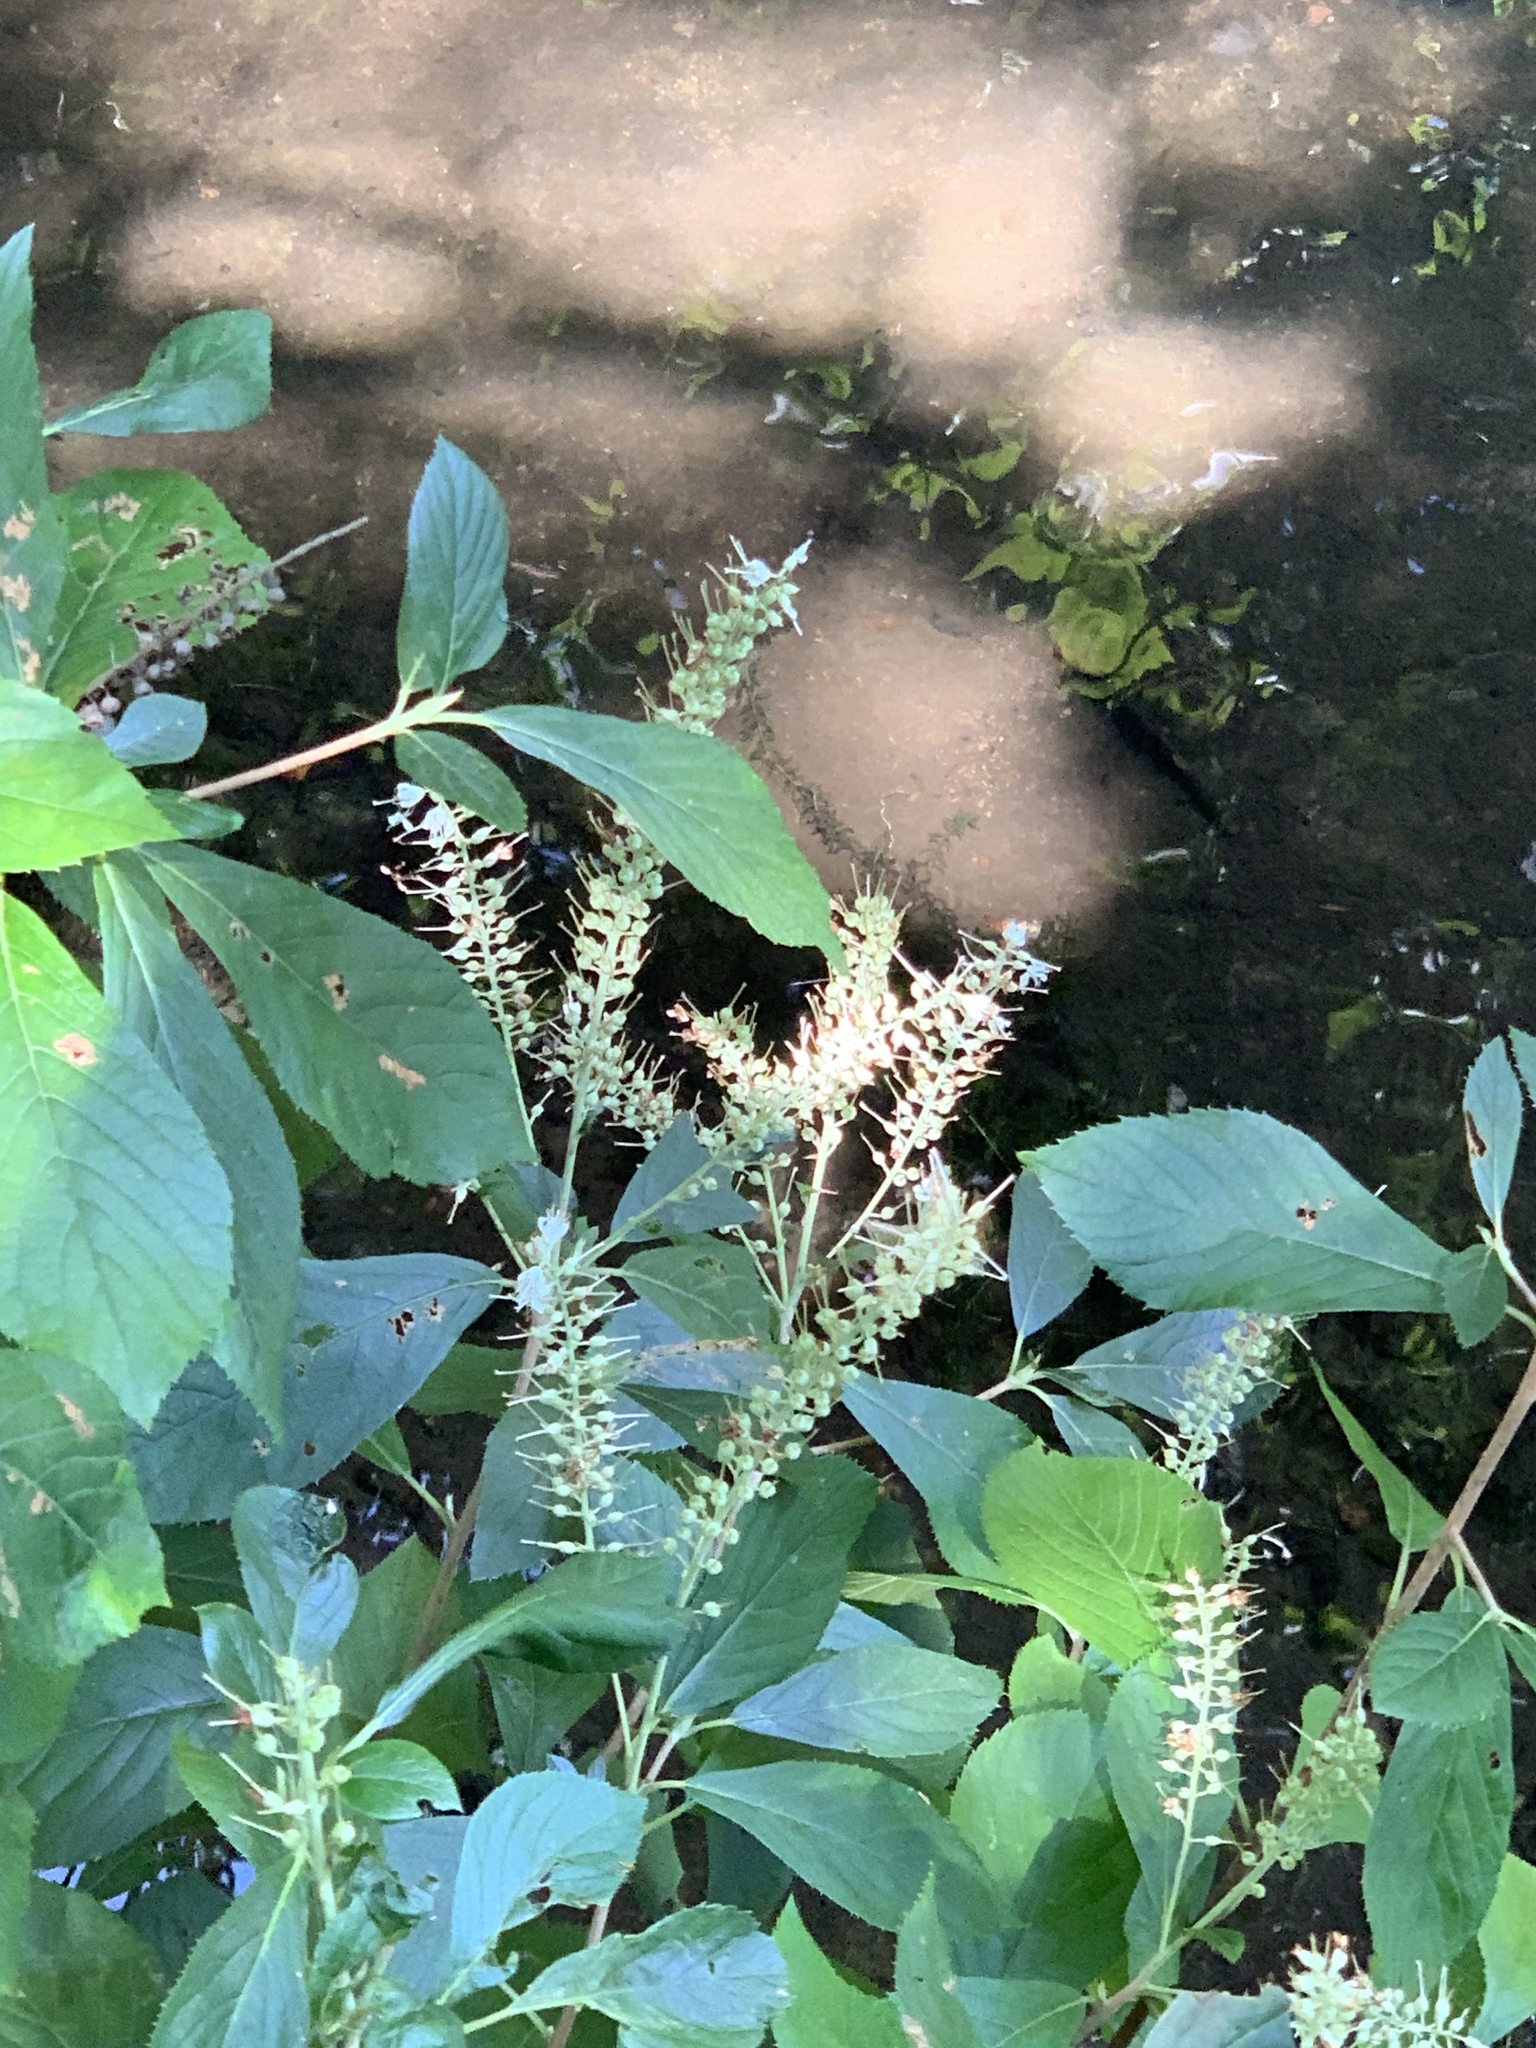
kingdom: Plantae
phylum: Tracheophyta
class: Magnoliopsida
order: Ericales
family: Clethraceae
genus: Clethra
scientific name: Clethra alnifolia
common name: Sweet pepperbush
